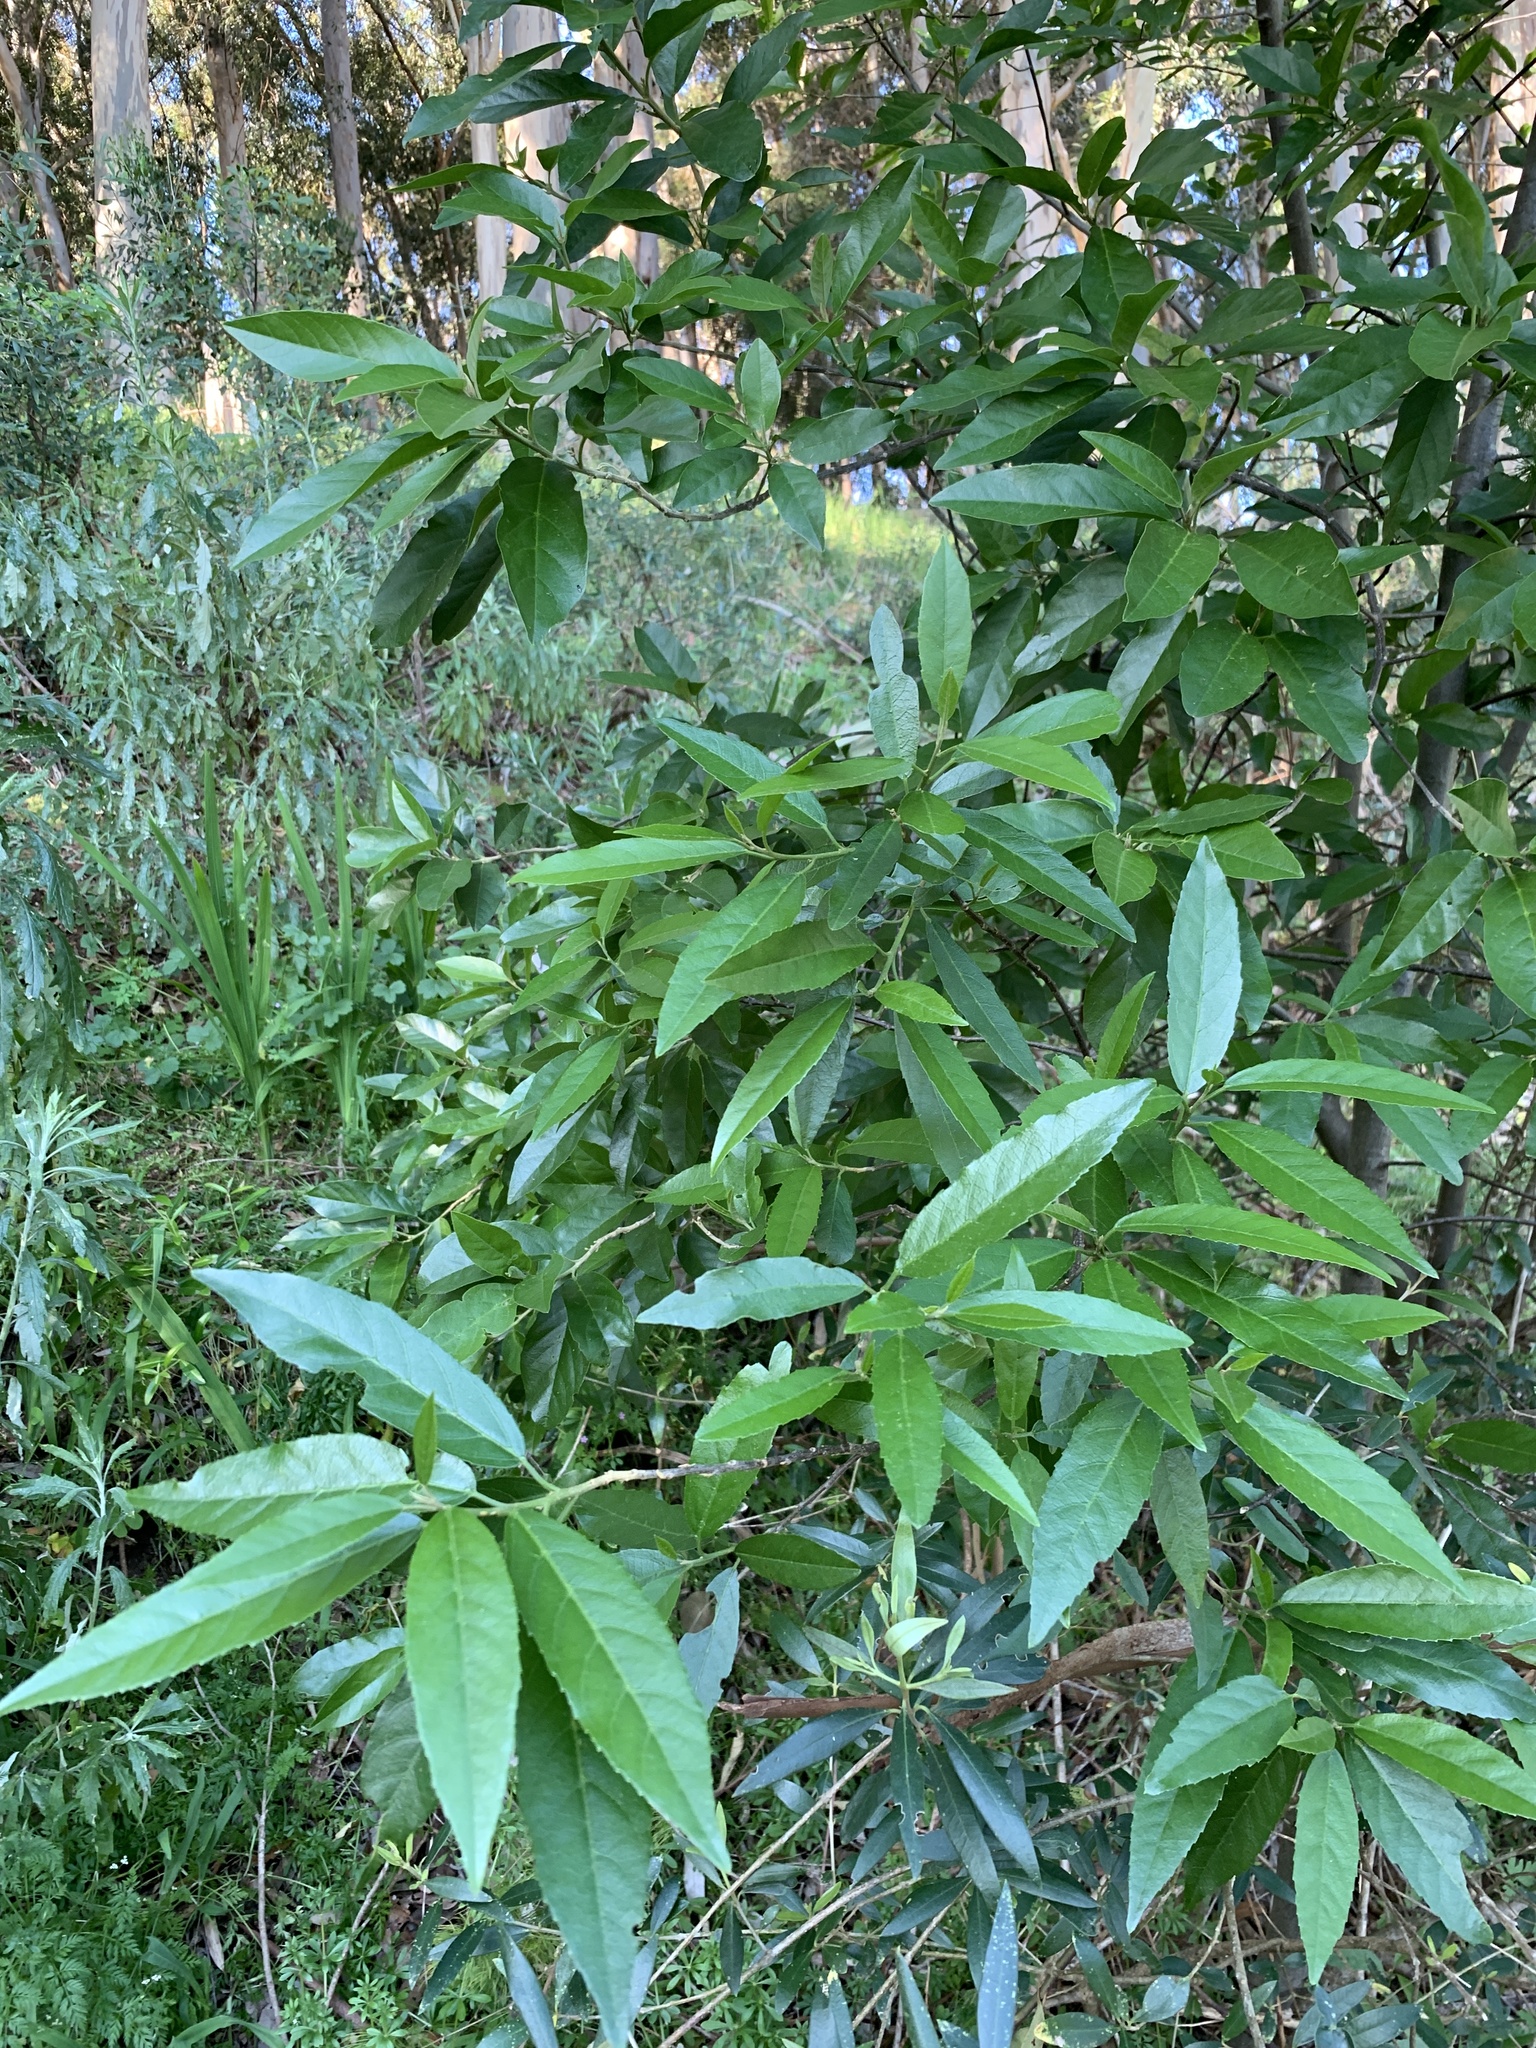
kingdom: Plantae
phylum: Tracheophyta
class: Magnoliopsida
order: Malpighiales
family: Achariaceae
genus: Kiggelaria
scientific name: Kiggelaria africana
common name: Wild peach
